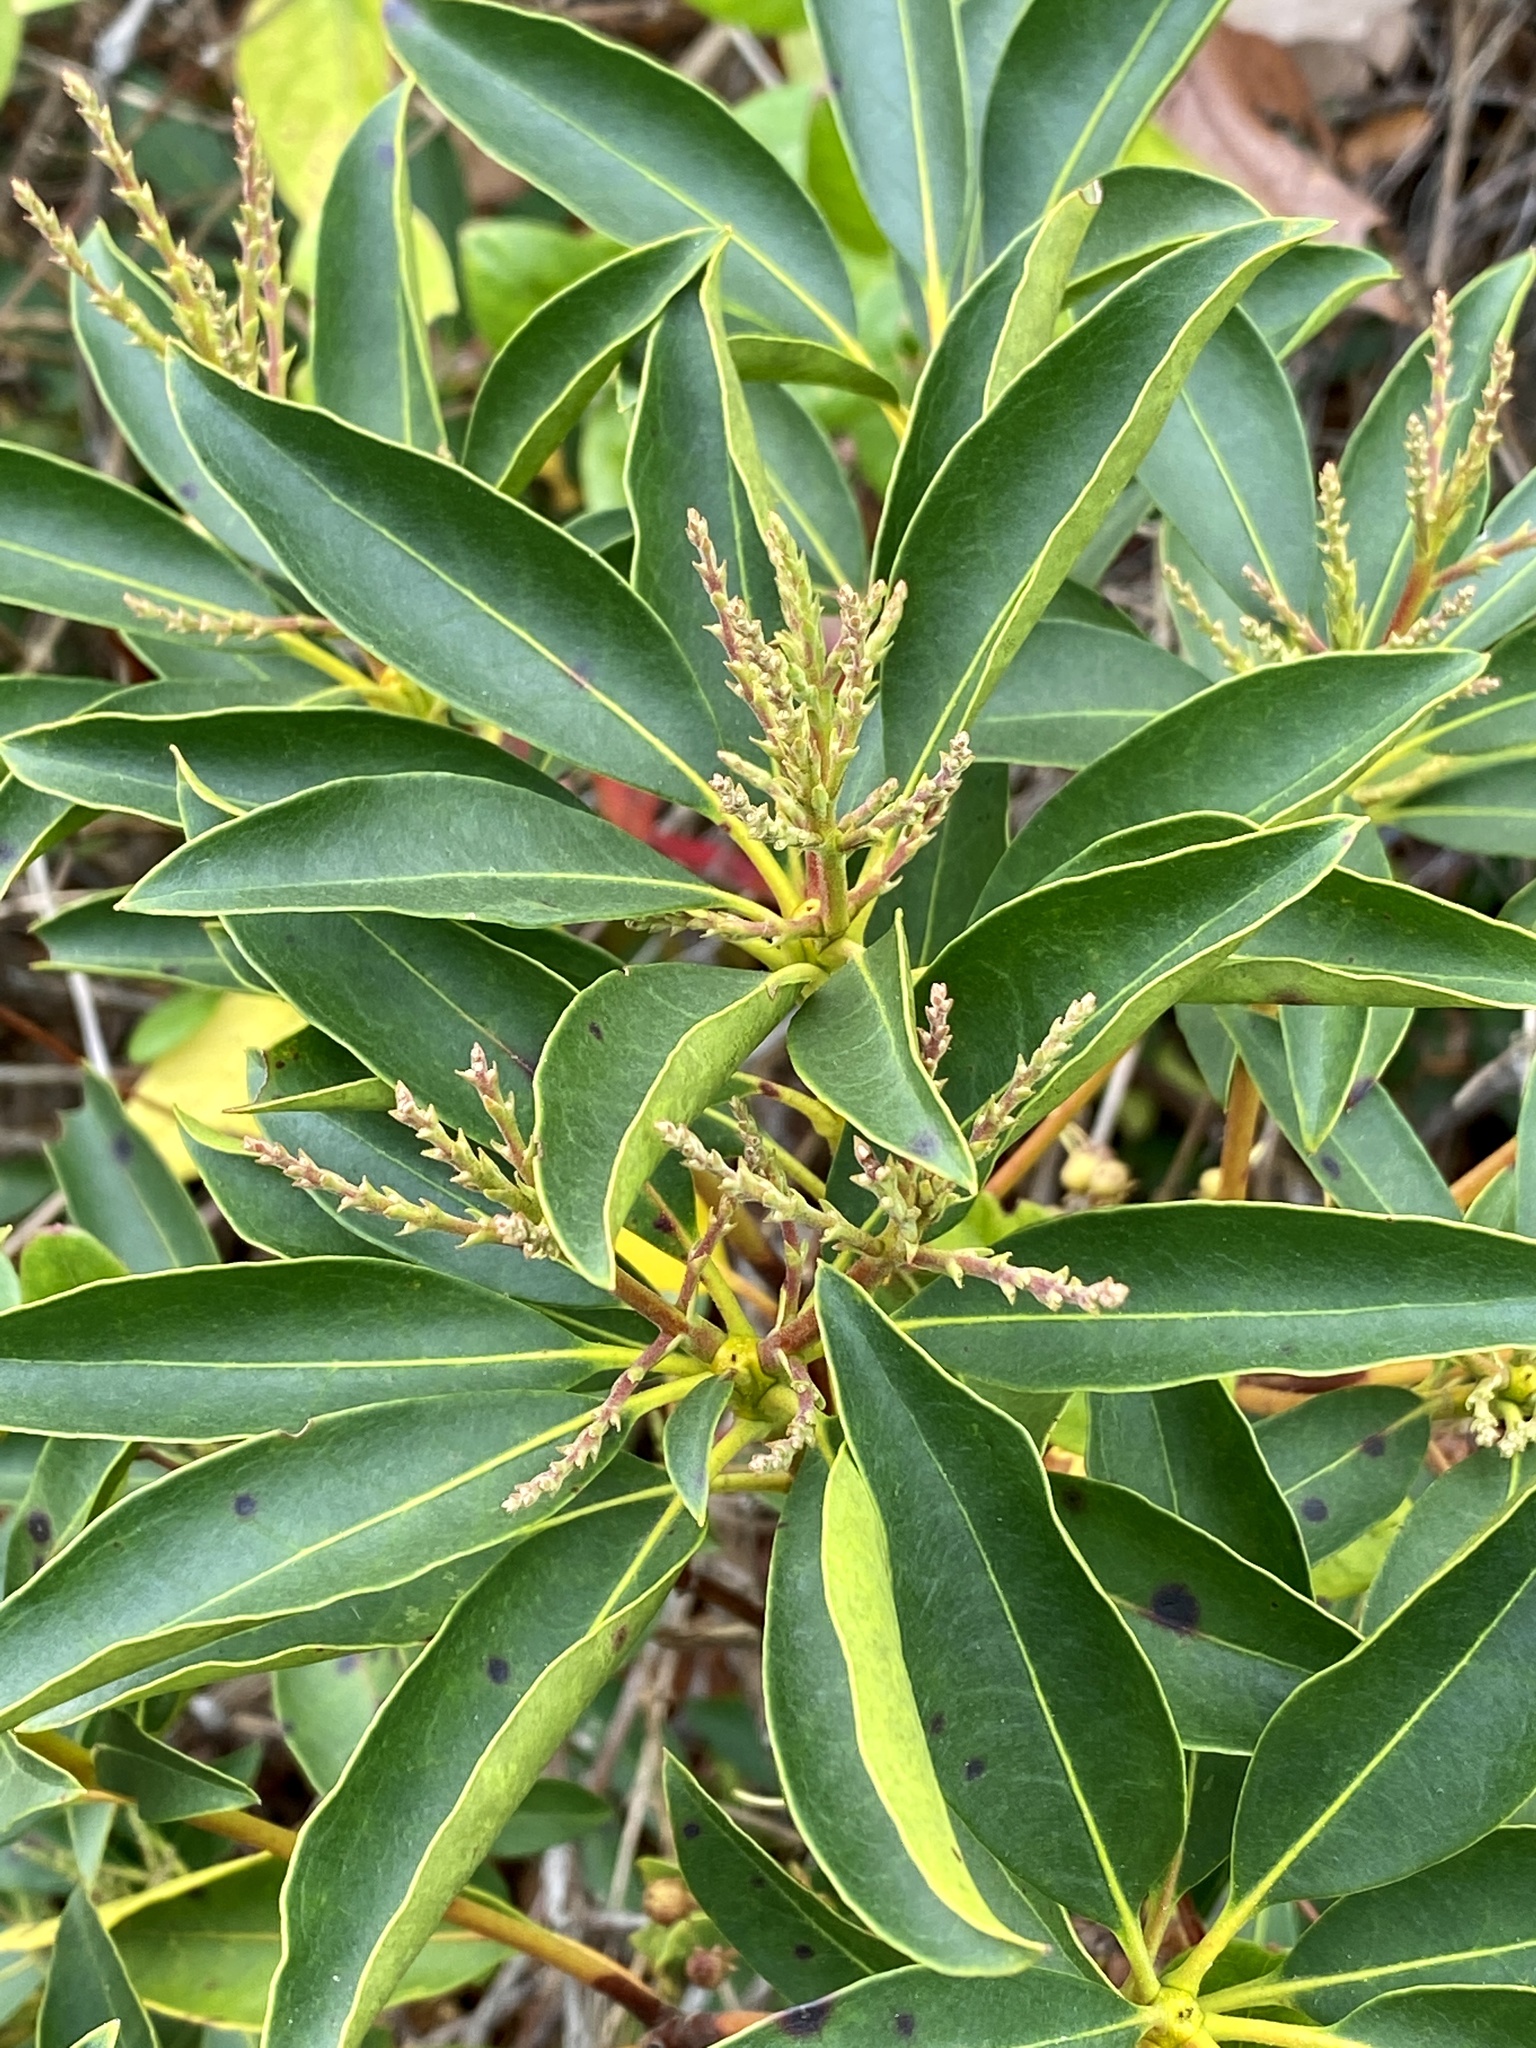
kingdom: Plantae
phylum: Tracheophyta
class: Magnoliopsida
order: Ericales
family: Ericaceae
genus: Kalmia
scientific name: Kalmia latifolia
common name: Mountain-laurel
